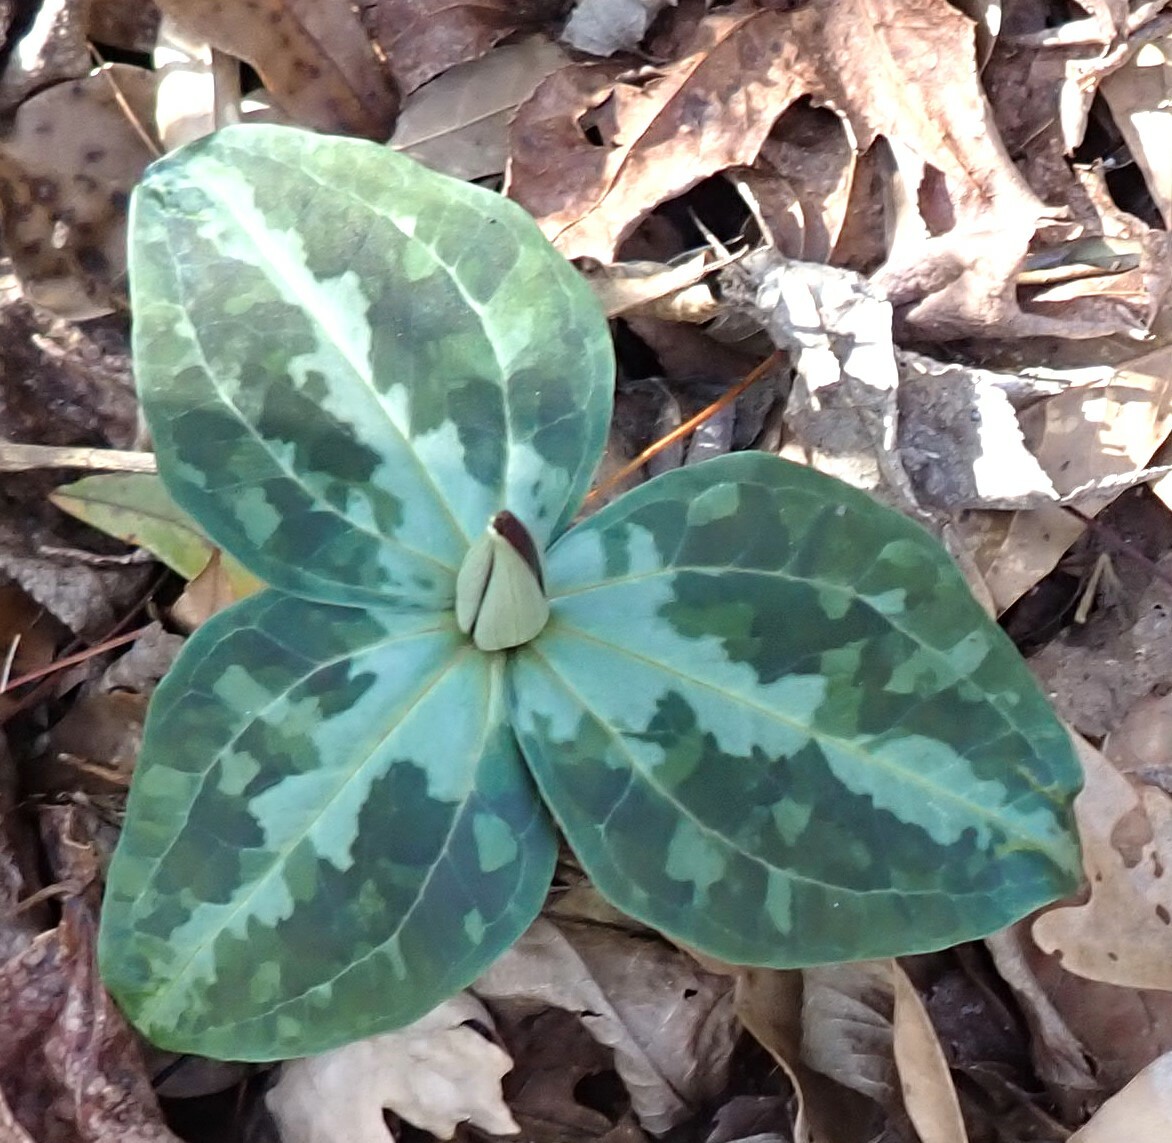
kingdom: Plantae
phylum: Tracheophyta
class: Liliopsida
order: Liliales
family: Melanthiaceae
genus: Trillium
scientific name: Trillium underwoodii
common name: Longbract wakerobin
